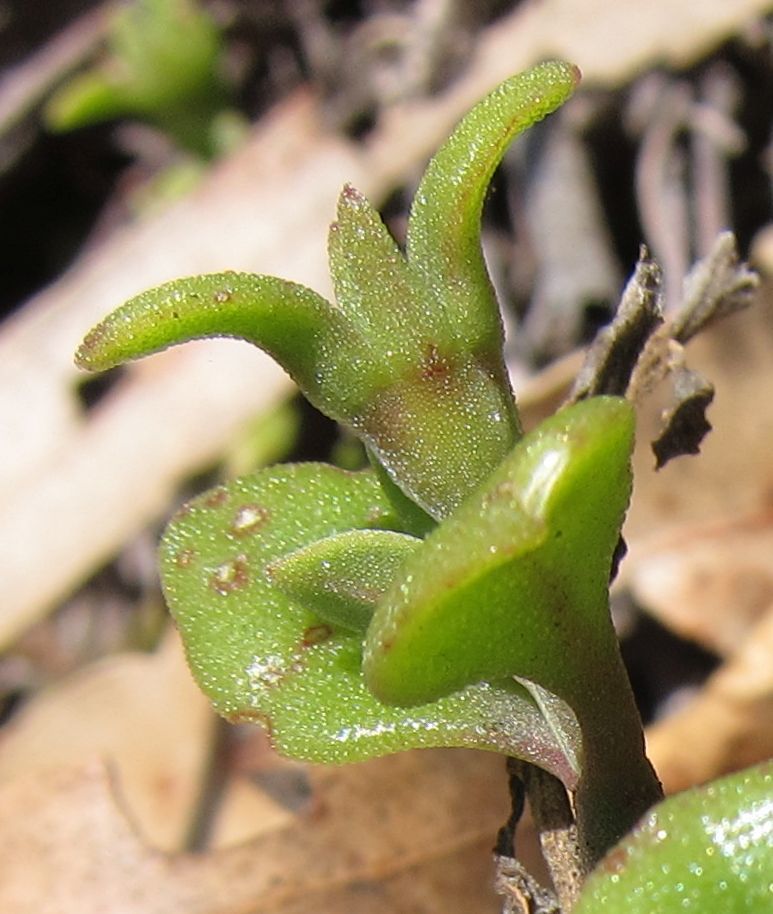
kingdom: Plantae
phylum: Tracheophyta
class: Magnoliopsida
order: Caryophyllales
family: Aizoaceae
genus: Mesembryanthemum
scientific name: Mesembryanthemum cordifolium
